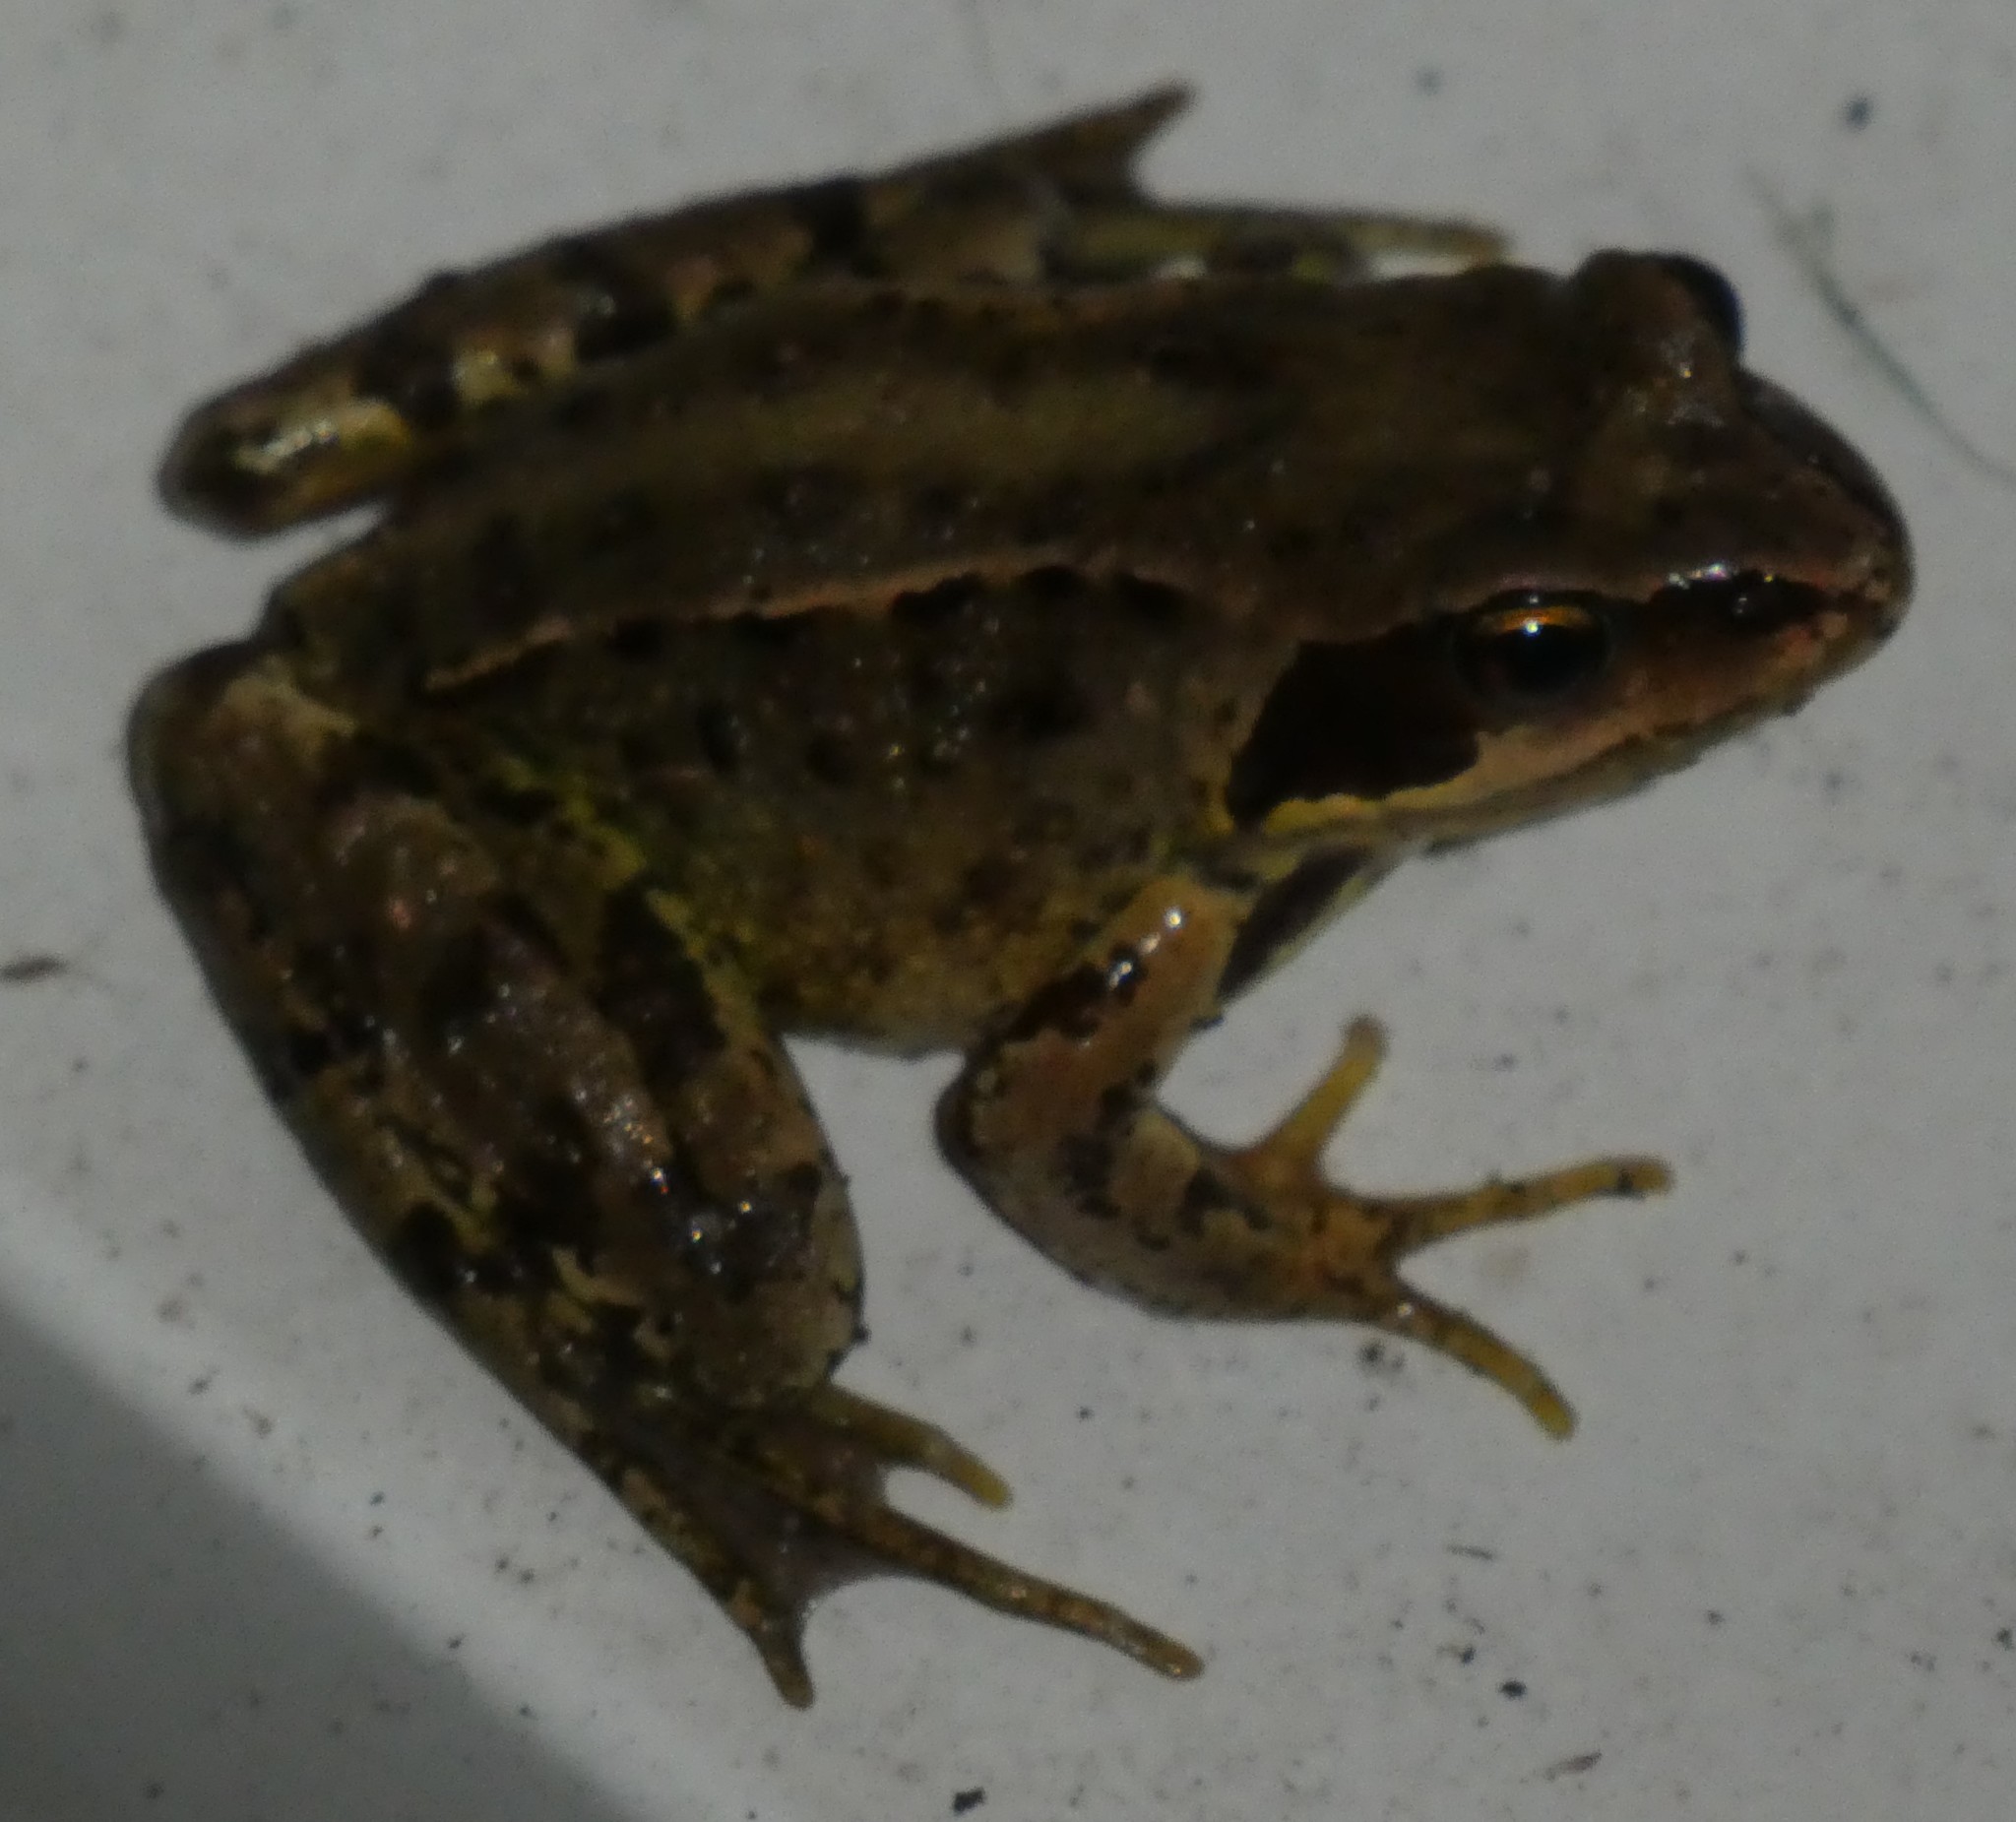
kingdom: Animalia
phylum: Chordata
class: Amphibia
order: Anura
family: Ranidae
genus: Rana
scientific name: Rana temporaria
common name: Common frog
